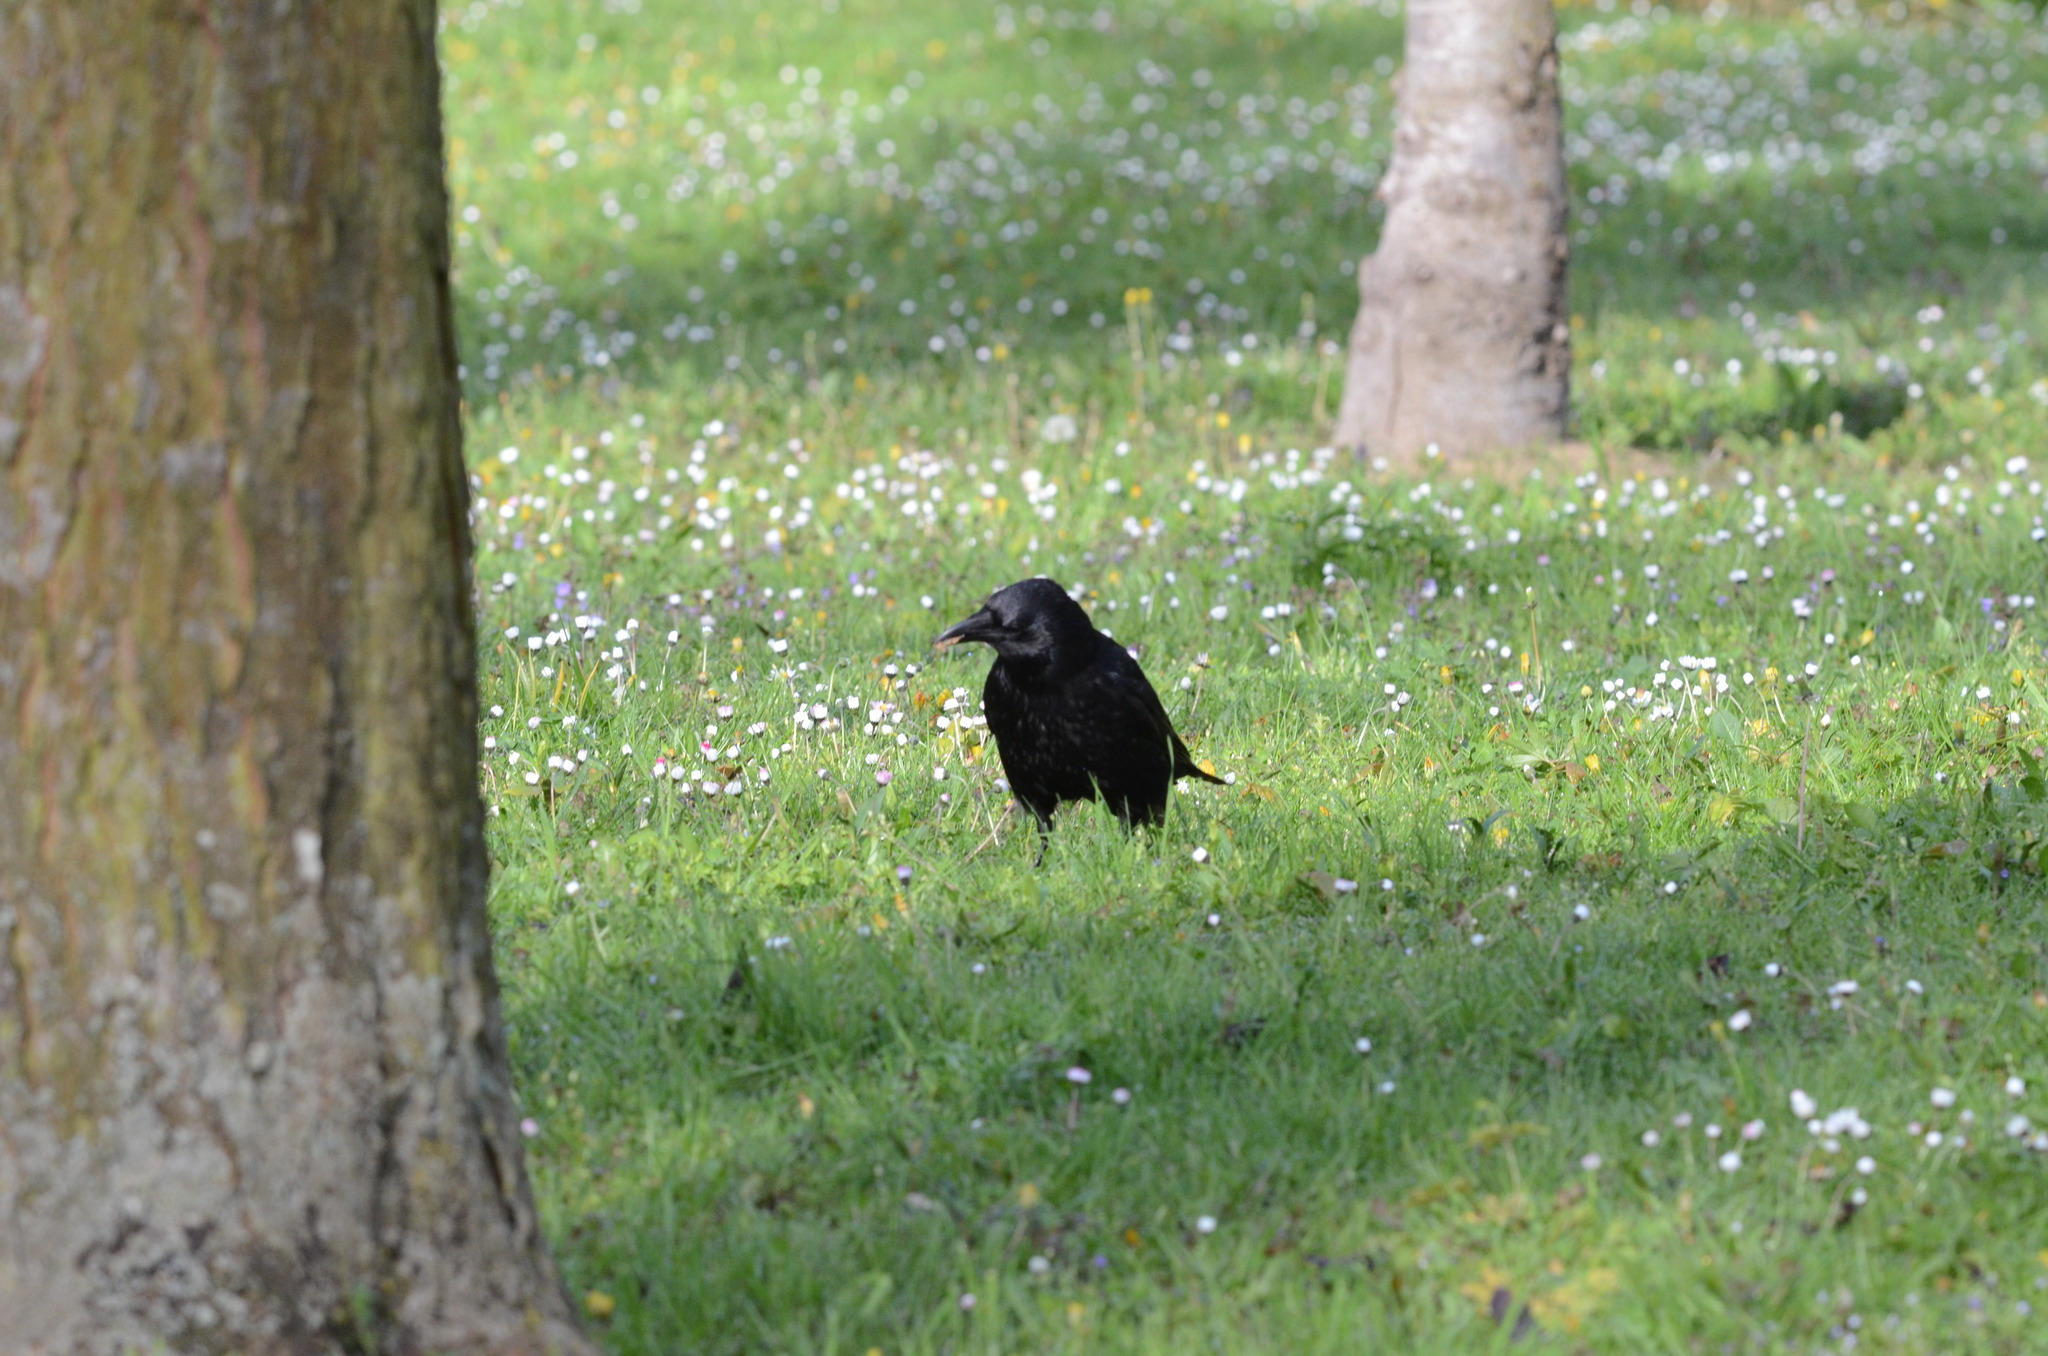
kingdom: Animalia
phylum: Chordata
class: Aves
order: Passeriformes
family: Corvidae
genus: Corvus
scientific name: Corvus corone
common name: Carrion crow
